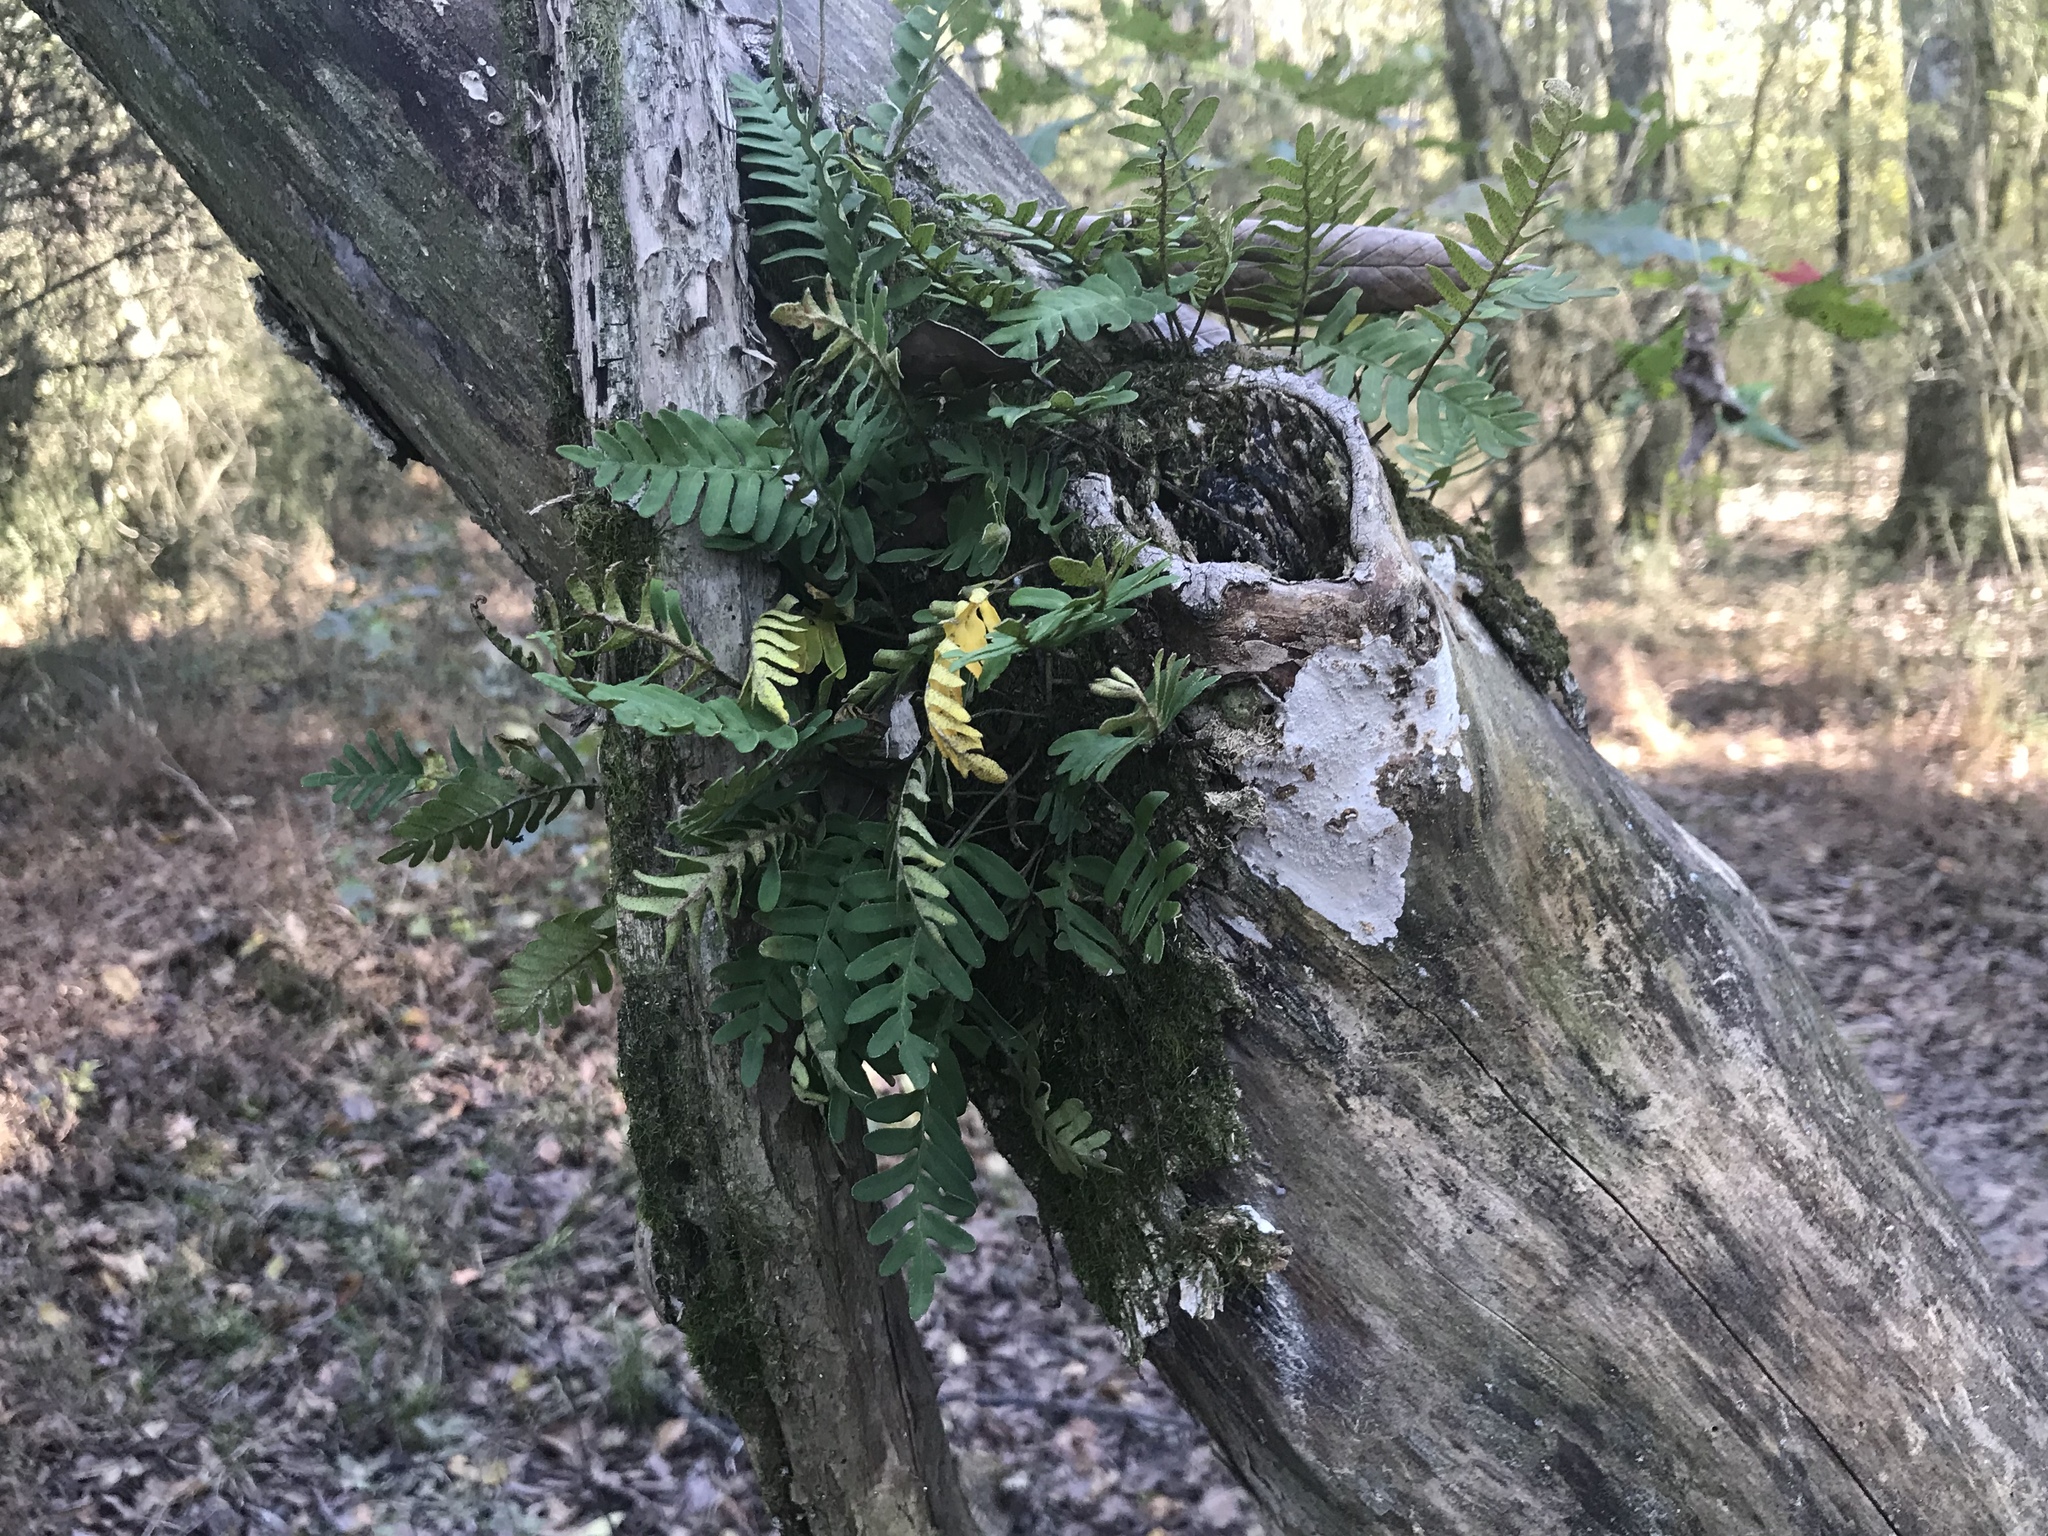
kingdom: Plantae
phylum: Tracheophyta
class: Polypodiopsida
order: Polypodiales
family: Polypodiaceae
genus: Pleopeltis
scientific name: Pleopeltis michauxiana
